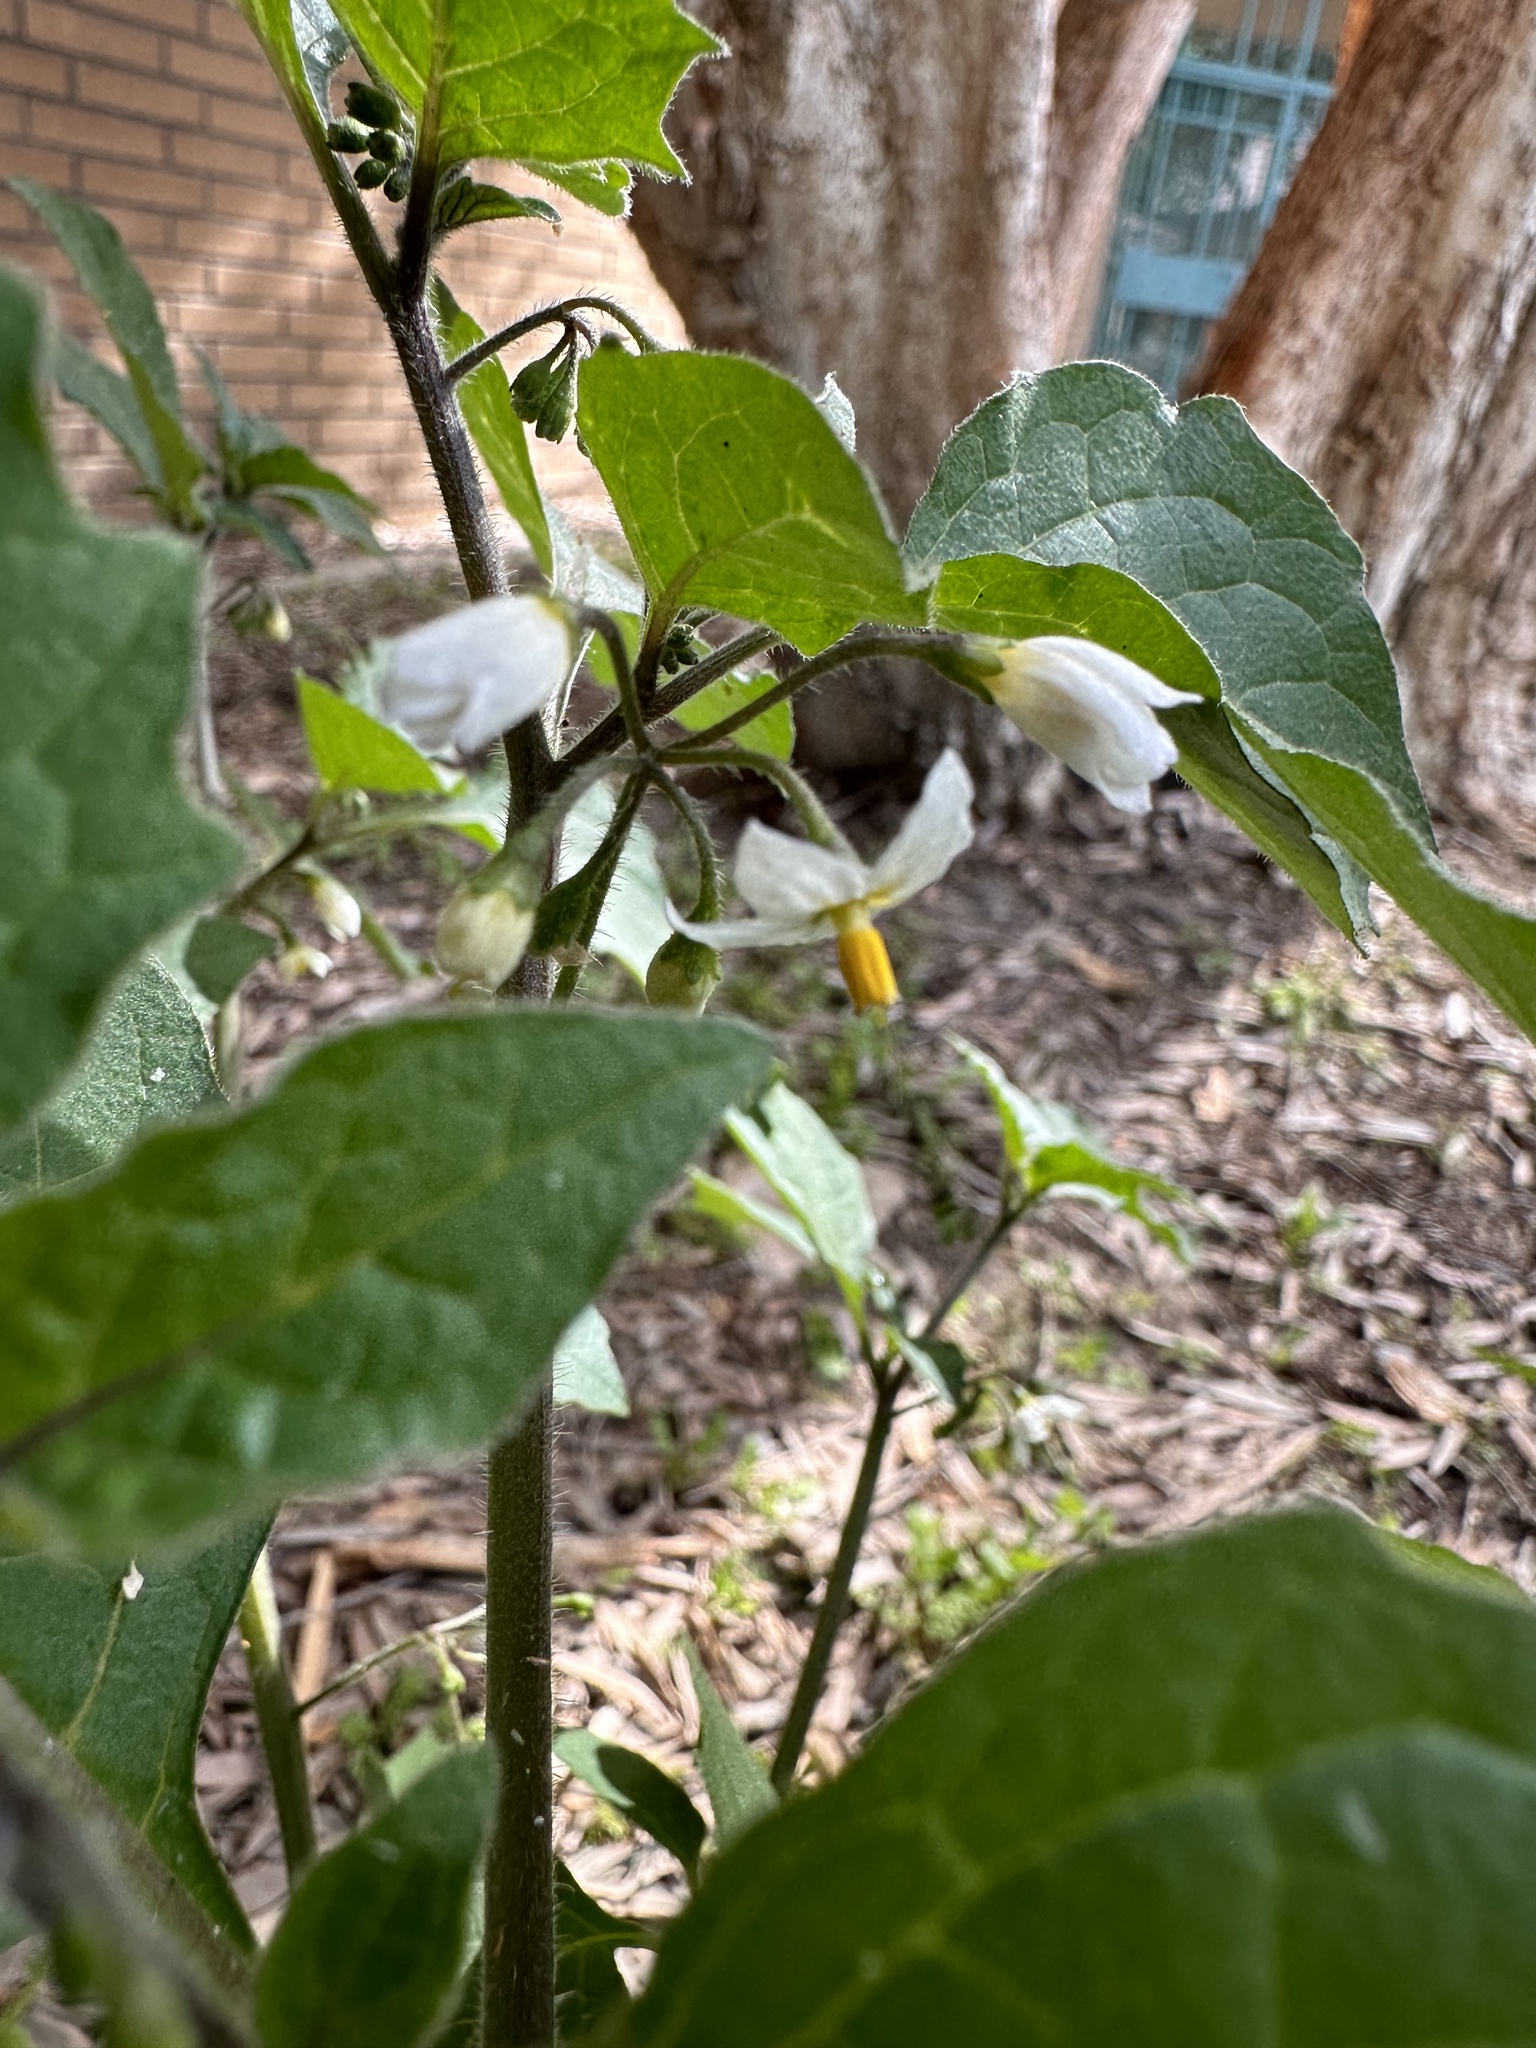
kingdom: Plantae
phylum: Tracheophyta
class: Magnoliopsida
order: Solanales
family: Solanaceae
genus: Solanum
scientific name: Solanum nigrum
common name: Black nightshade
